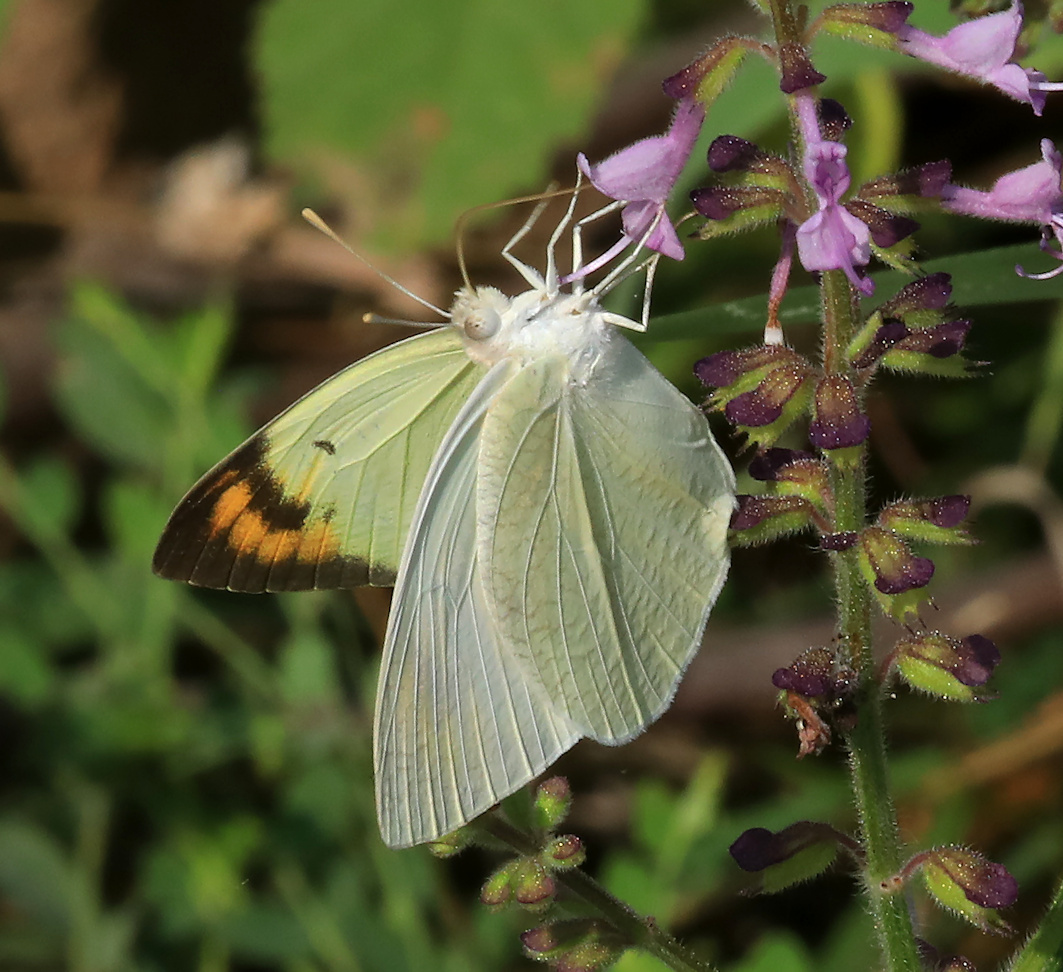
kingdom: Animalia
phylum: Arthropoda
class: Insecta
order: Lepidoptera
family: Pieridae
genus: Colotis
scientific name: Colotis subfasciatus
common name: Lemon traveller tip
